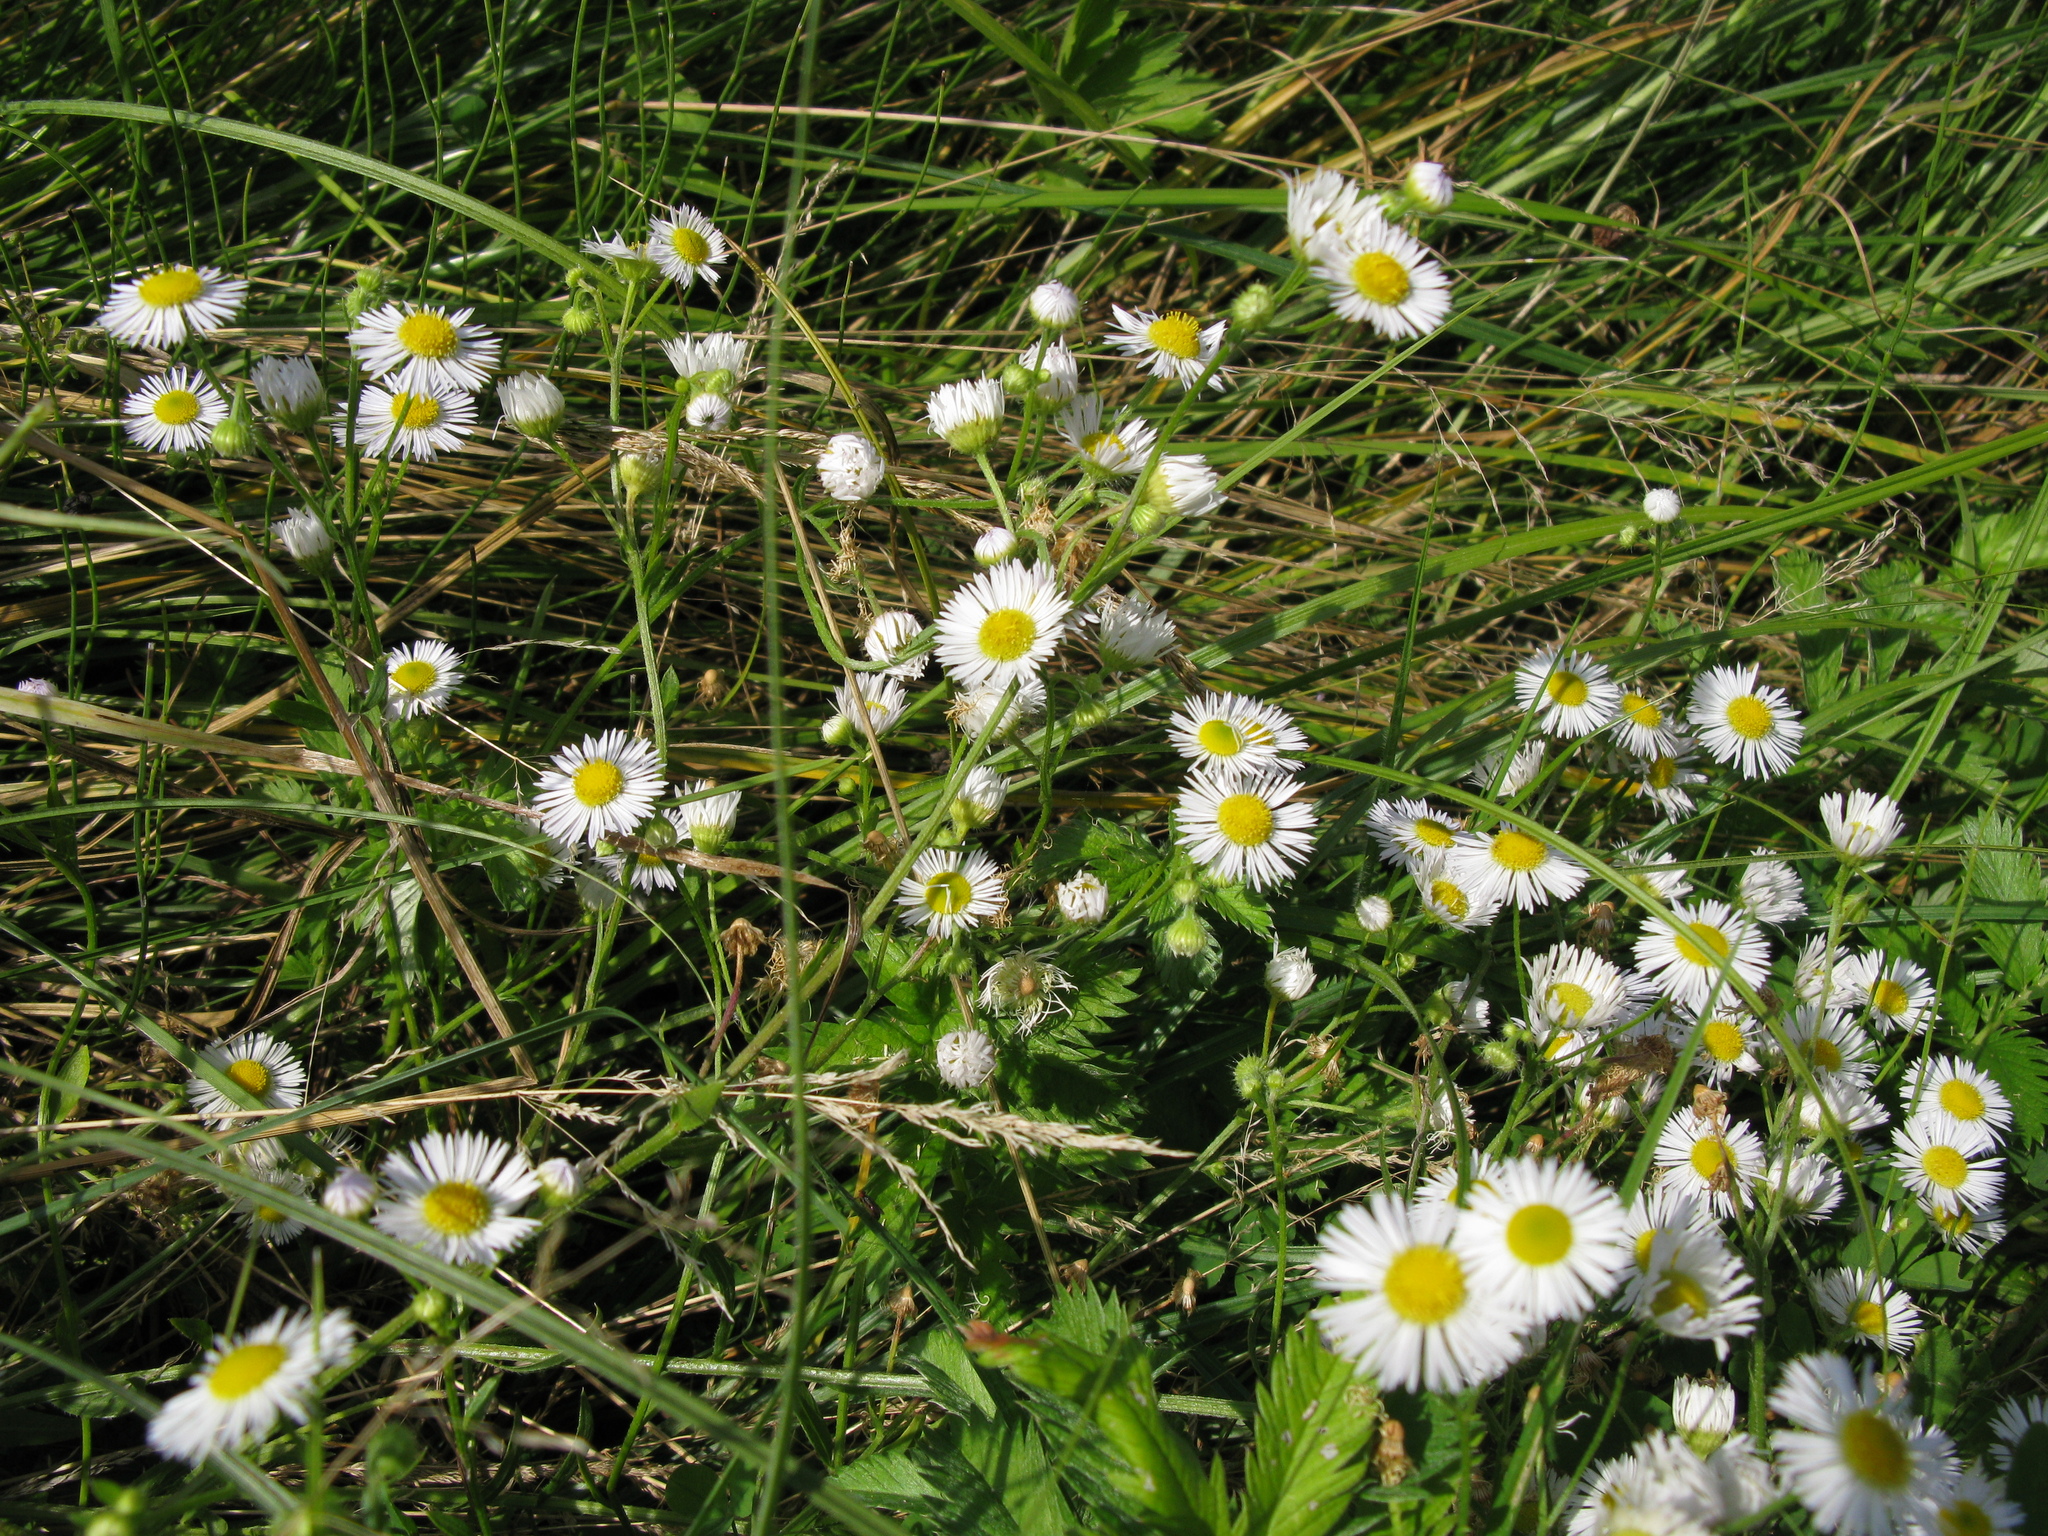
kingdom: Plantae
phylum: Tracheophyta
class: Magnoliopsida
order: Asterales
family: Asteraceae
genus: Erigeron
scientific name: Erigeron annuus
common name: Tall fleabane
